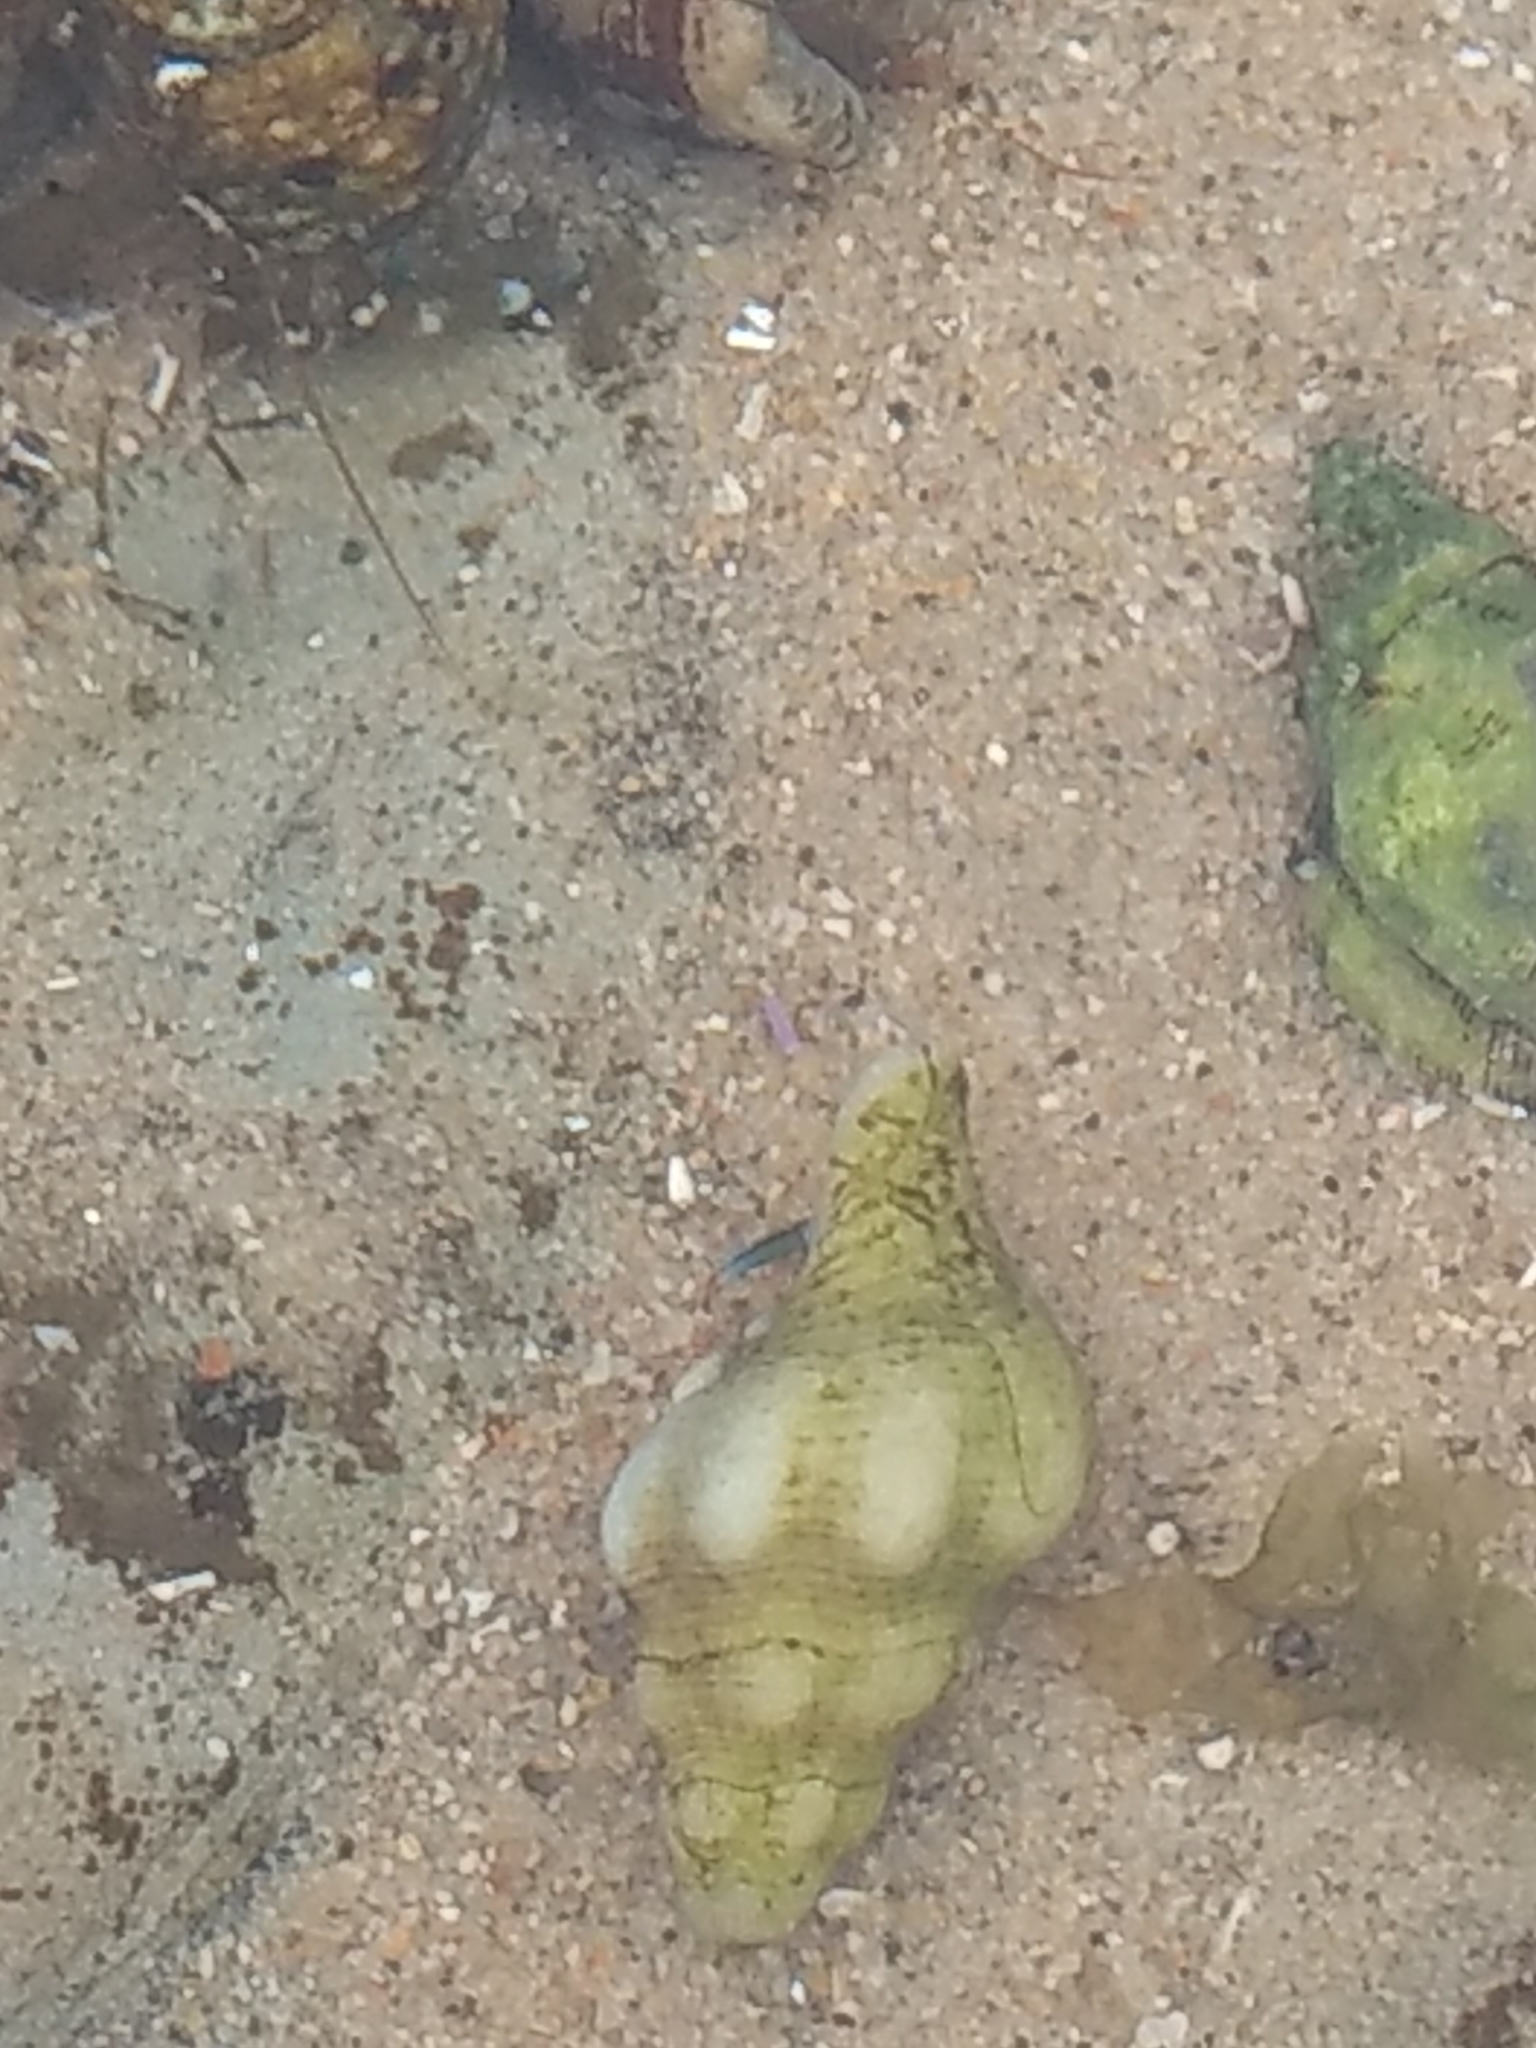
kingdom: Animalia
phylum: Mollusca
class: Gastropoda
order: Neogastropoda
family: Austrosiphonidae
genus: Kelletia
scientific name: Kelletia kelletii
